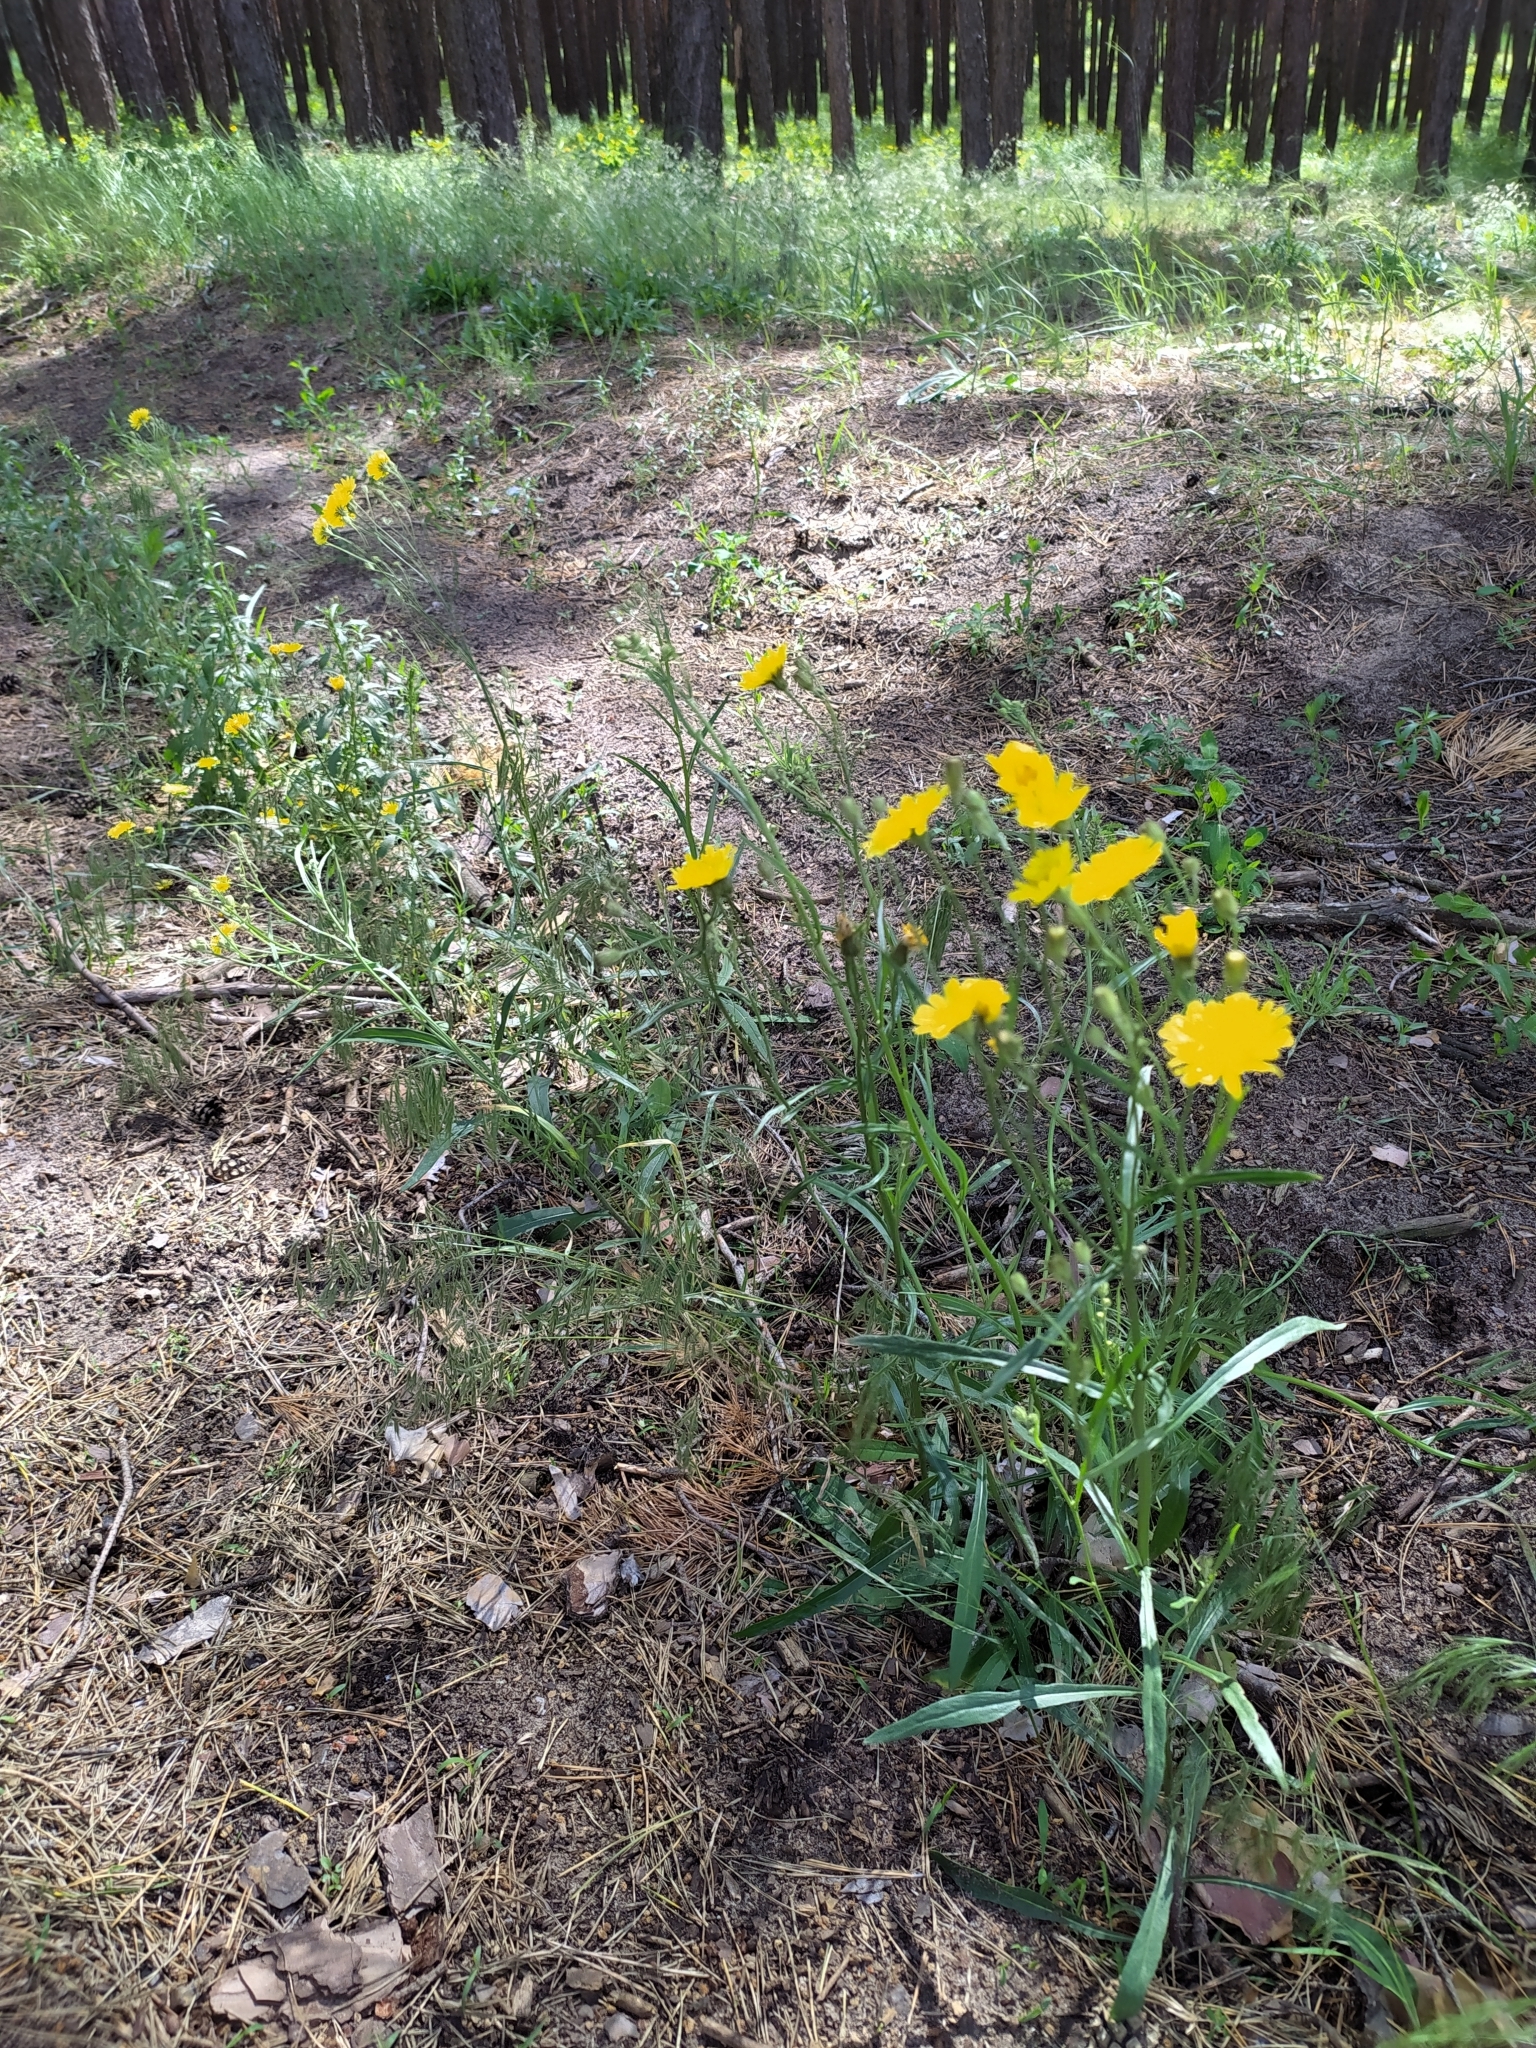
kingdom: Plantae
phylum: Tracheophyta
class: Magnoliopsida
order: Asterales
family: Asteraceae
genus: Crepis
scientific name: Crepis tectorum
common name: Narrow-leaved hawk's-beard
